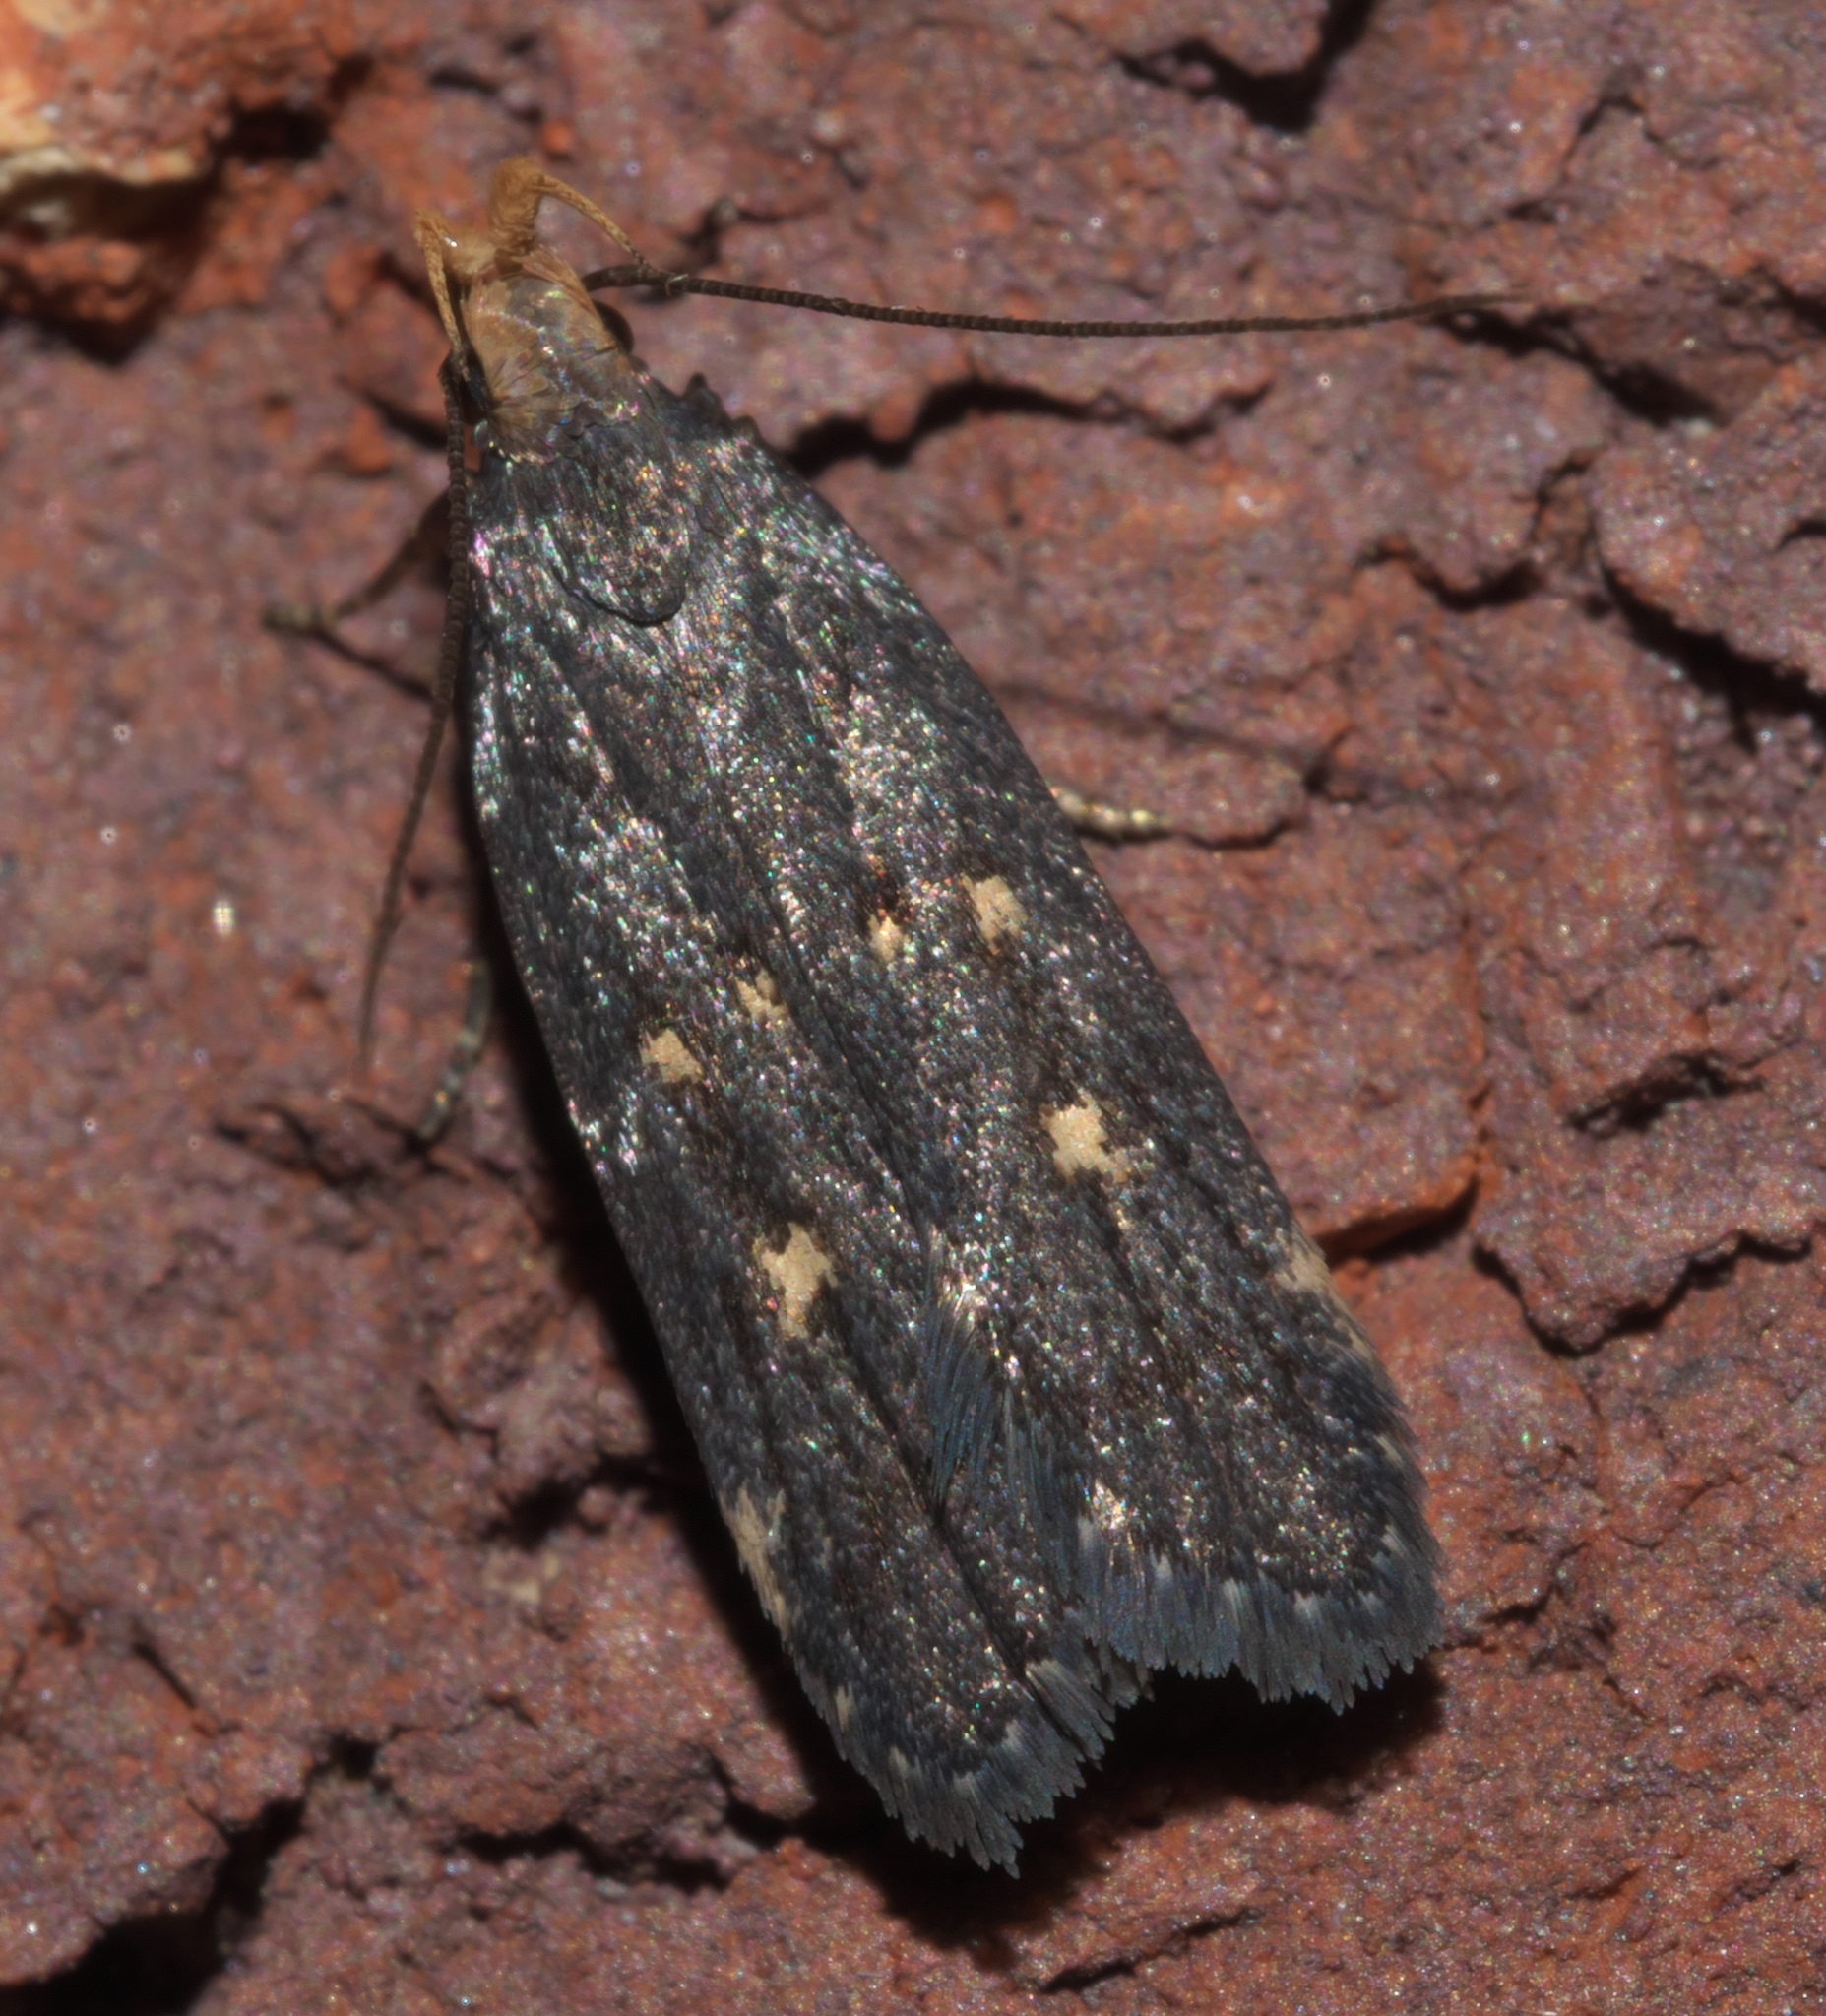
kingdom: Animalia
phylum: Arthropoda
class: Insecta
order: Lepidoptera
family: Gelechiidae
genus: Dichomeris
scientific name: Dichomeris agonia
